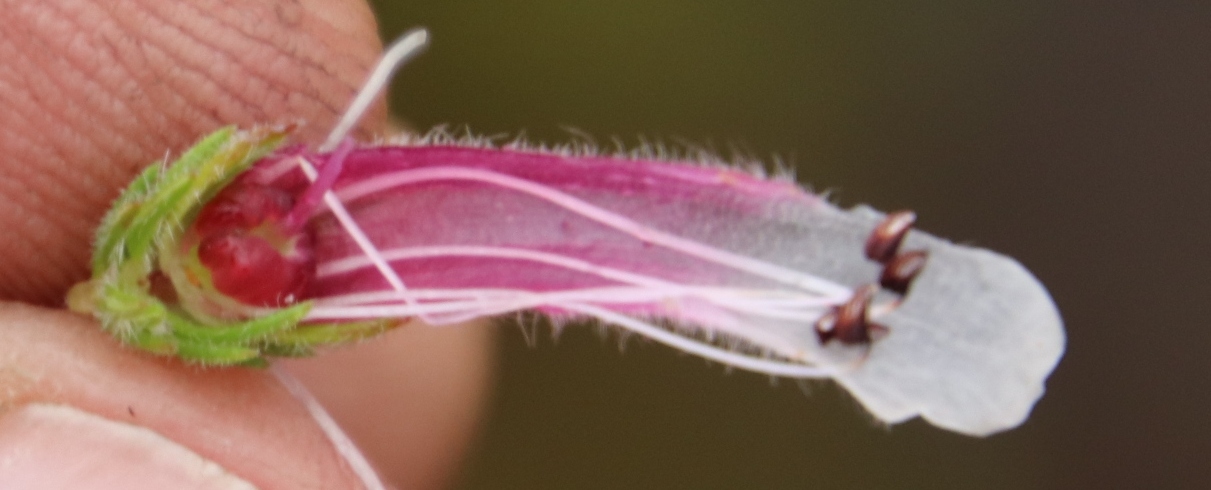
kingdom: Plantae
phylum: Tracheophyta
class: Magnoliopsida
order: Ericales
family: Ericaceae
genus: Erica
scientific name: Erica macowanii
